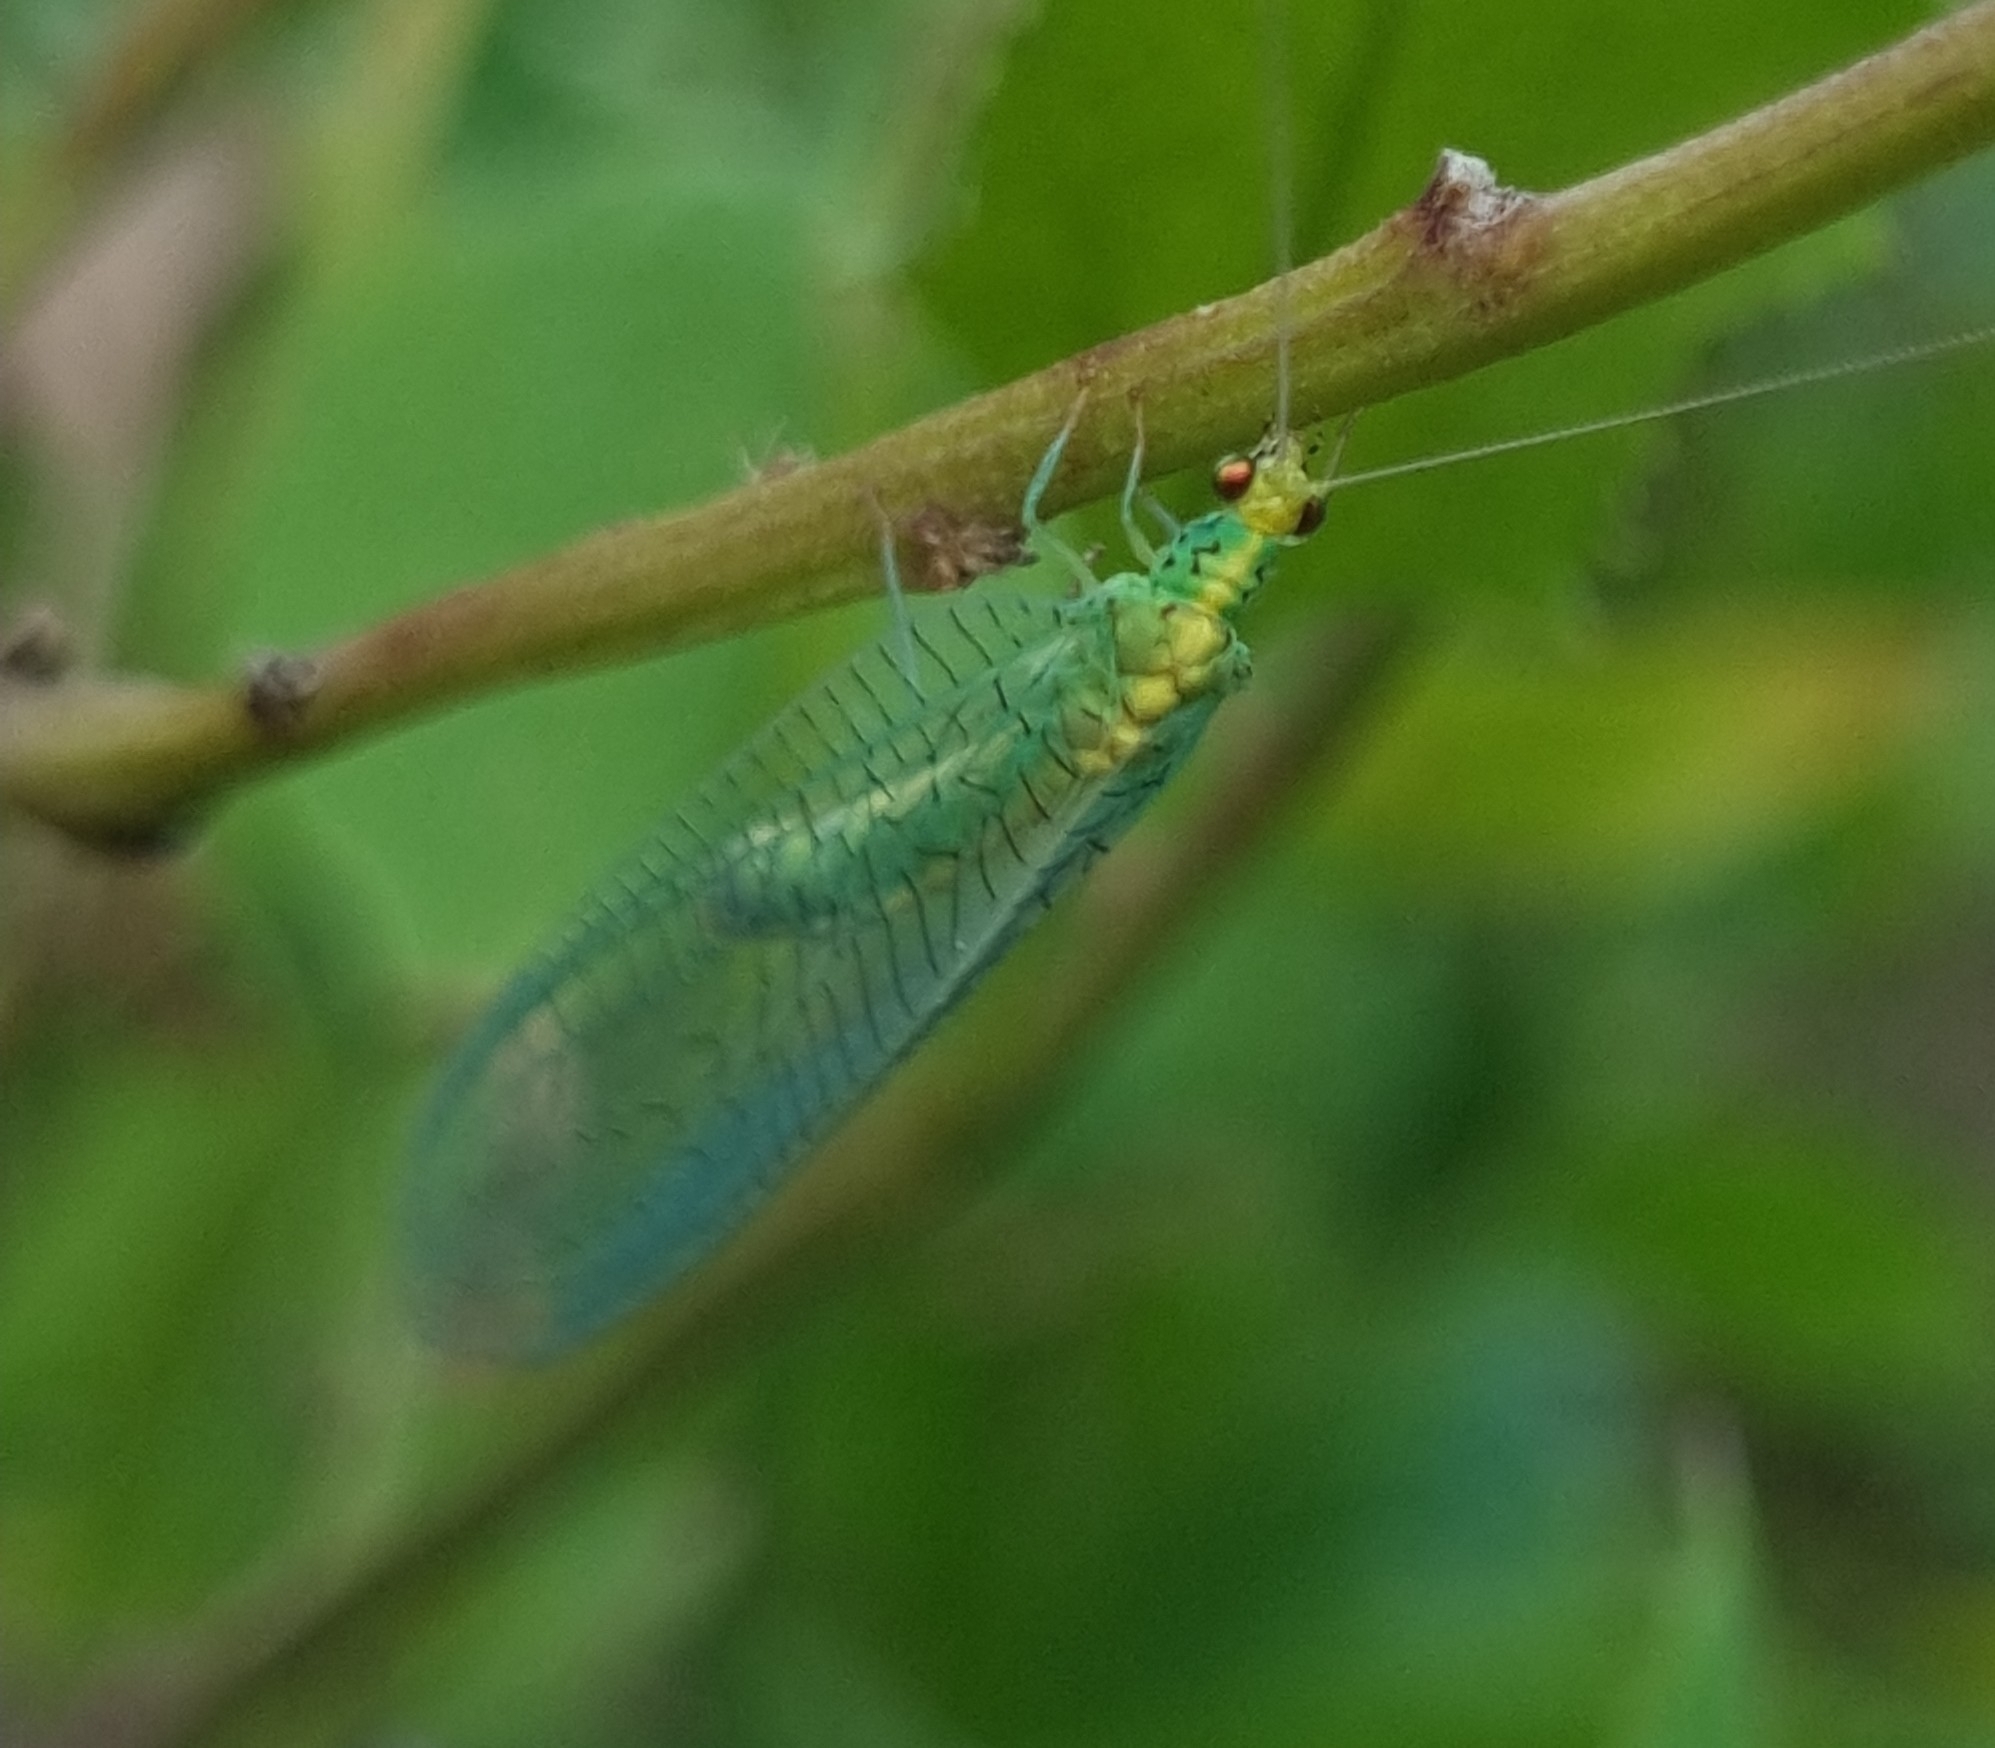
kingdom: Animalia
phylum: Arthropoda
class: Insecta
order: Neuroptera
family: Chrysopidae
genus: Pseudomallada
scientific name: Pseudomallada edwardsi
